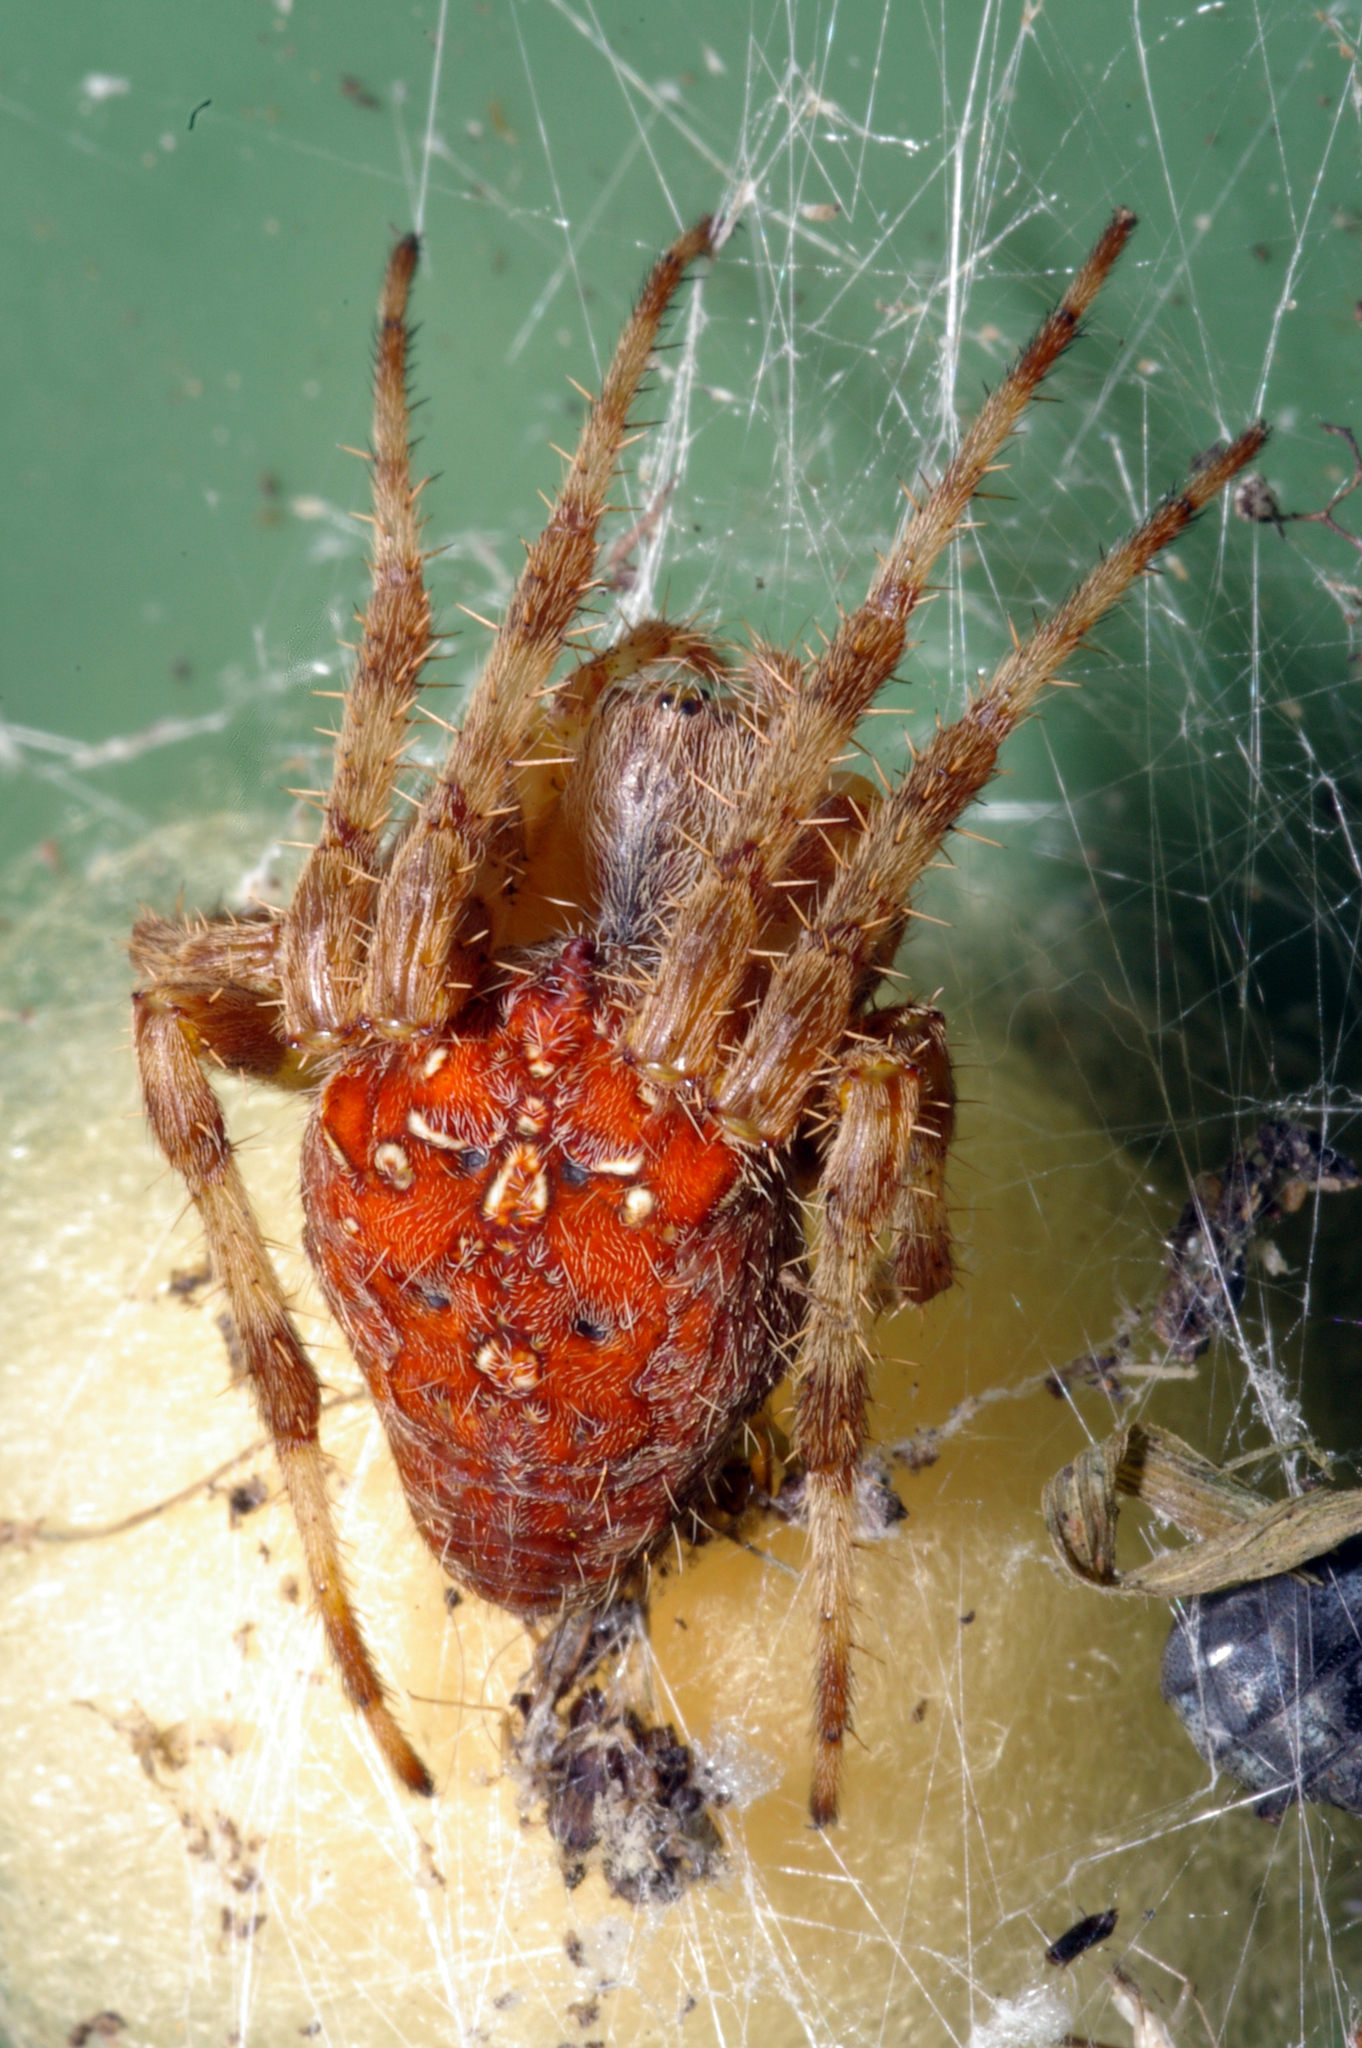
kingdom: Animalia
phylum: Arthropoda
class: Arachnida
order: Araneae
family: Araneidae
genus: Araneus
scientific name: Araneus diadematus
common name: Cross orbweaver
